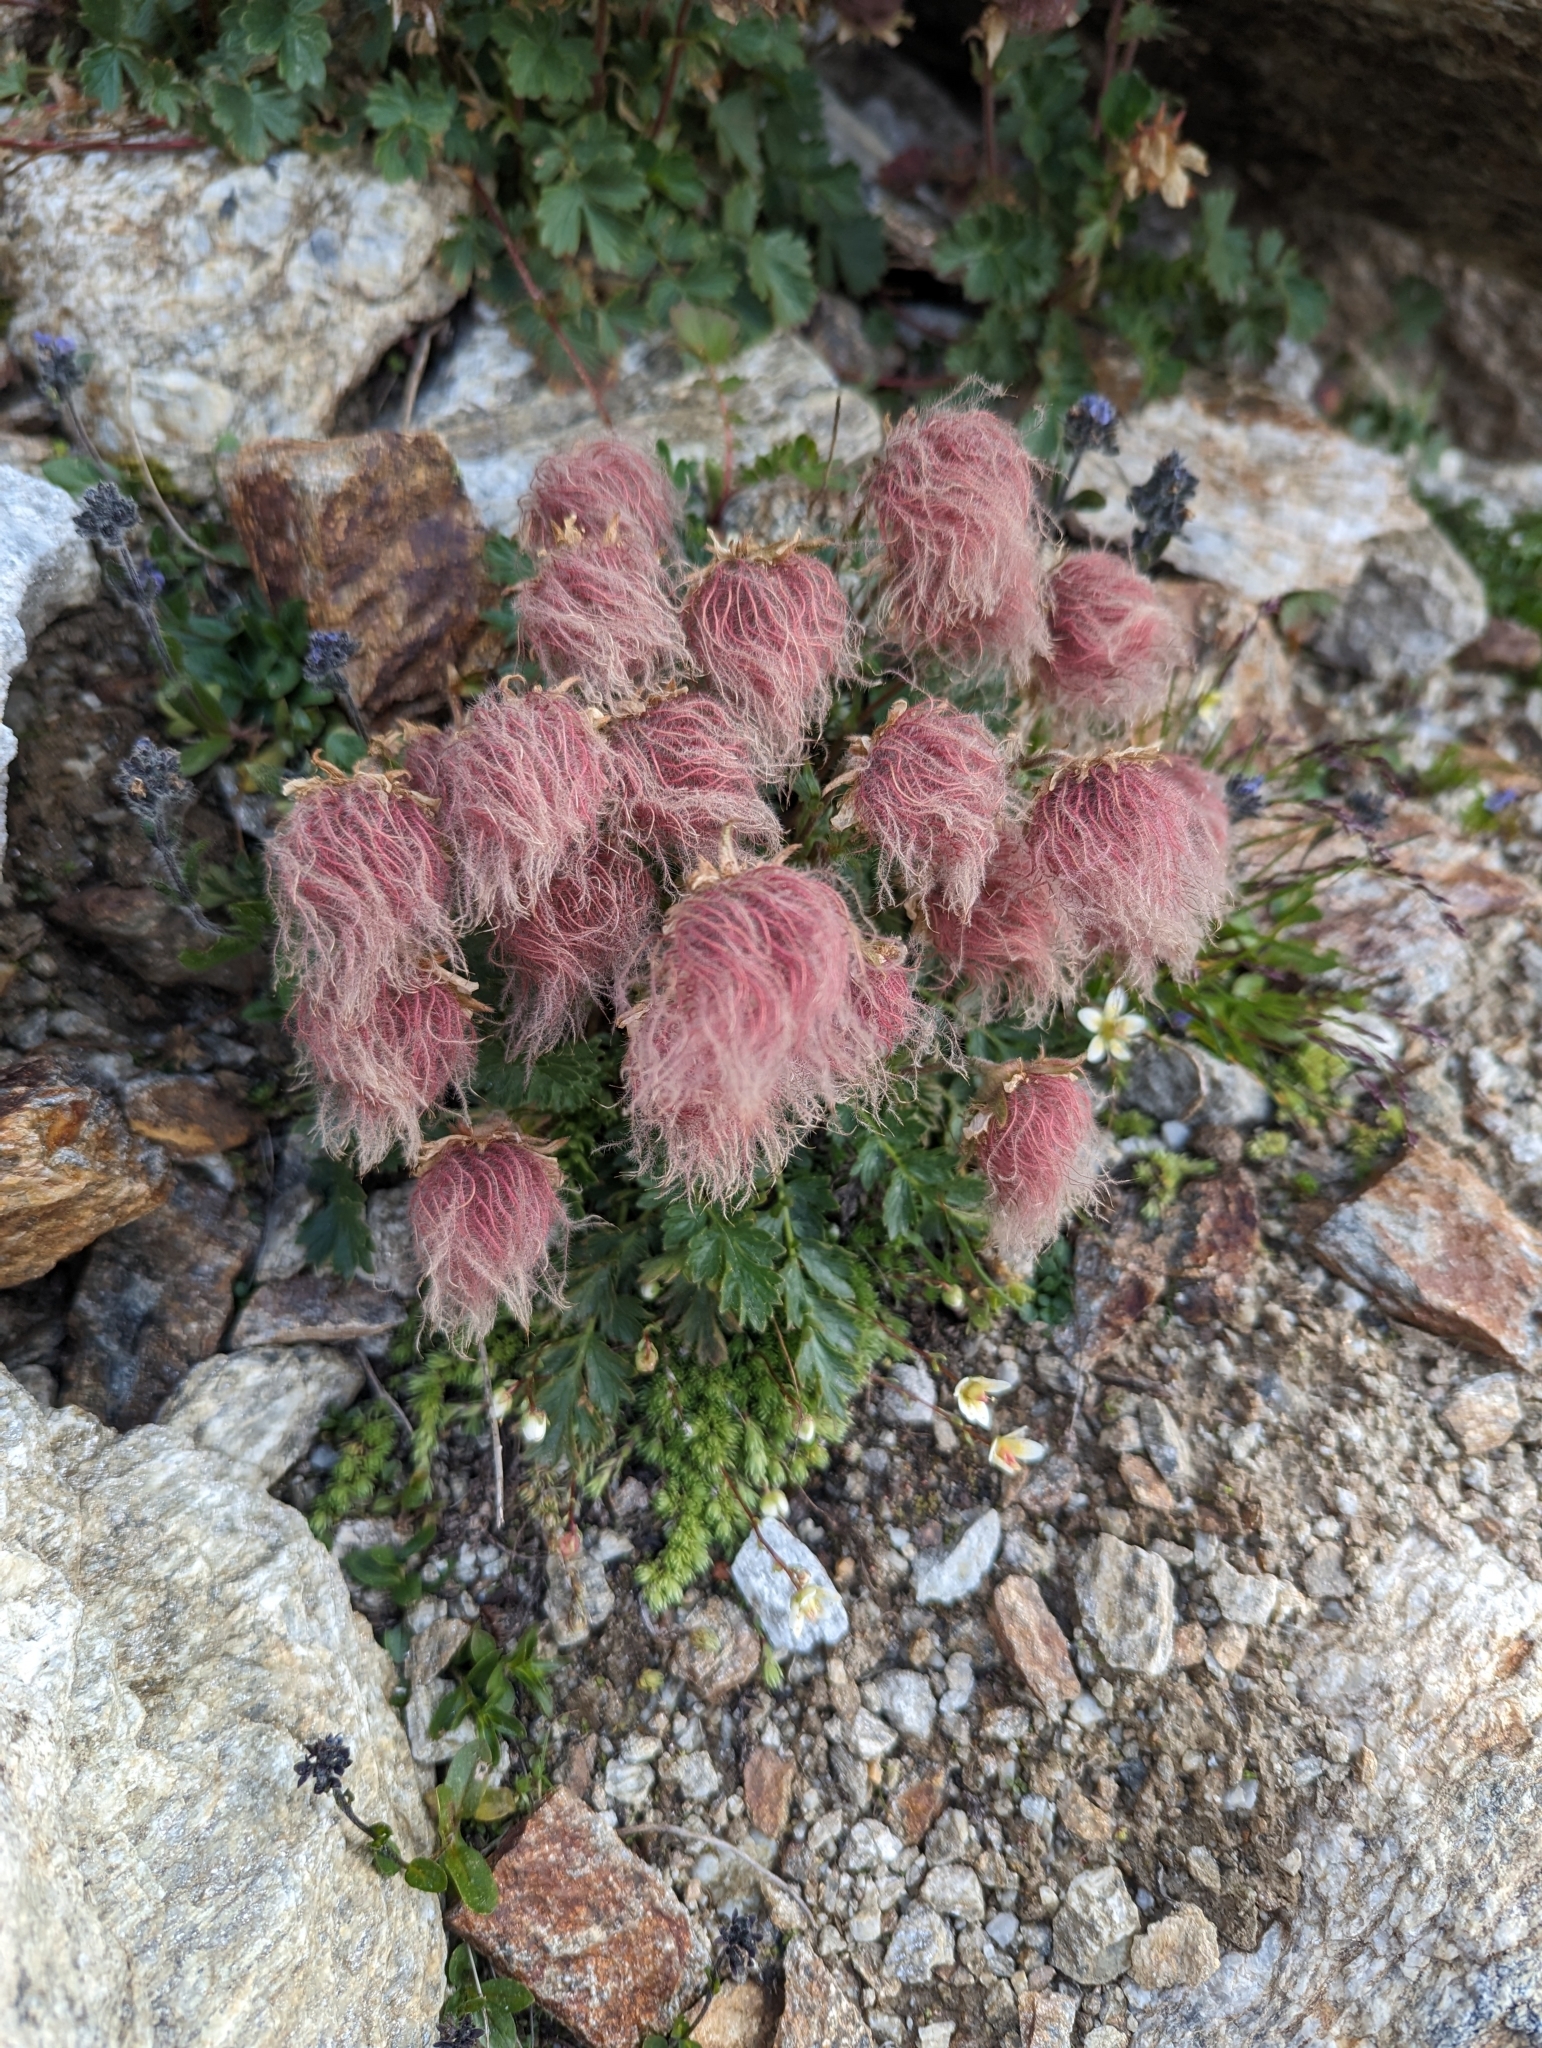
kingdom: Plantae
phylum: Tracheophyta
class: Magnoliopsida
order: Rosales
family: Rosaceae
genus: Geum
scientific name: Geum reptans
